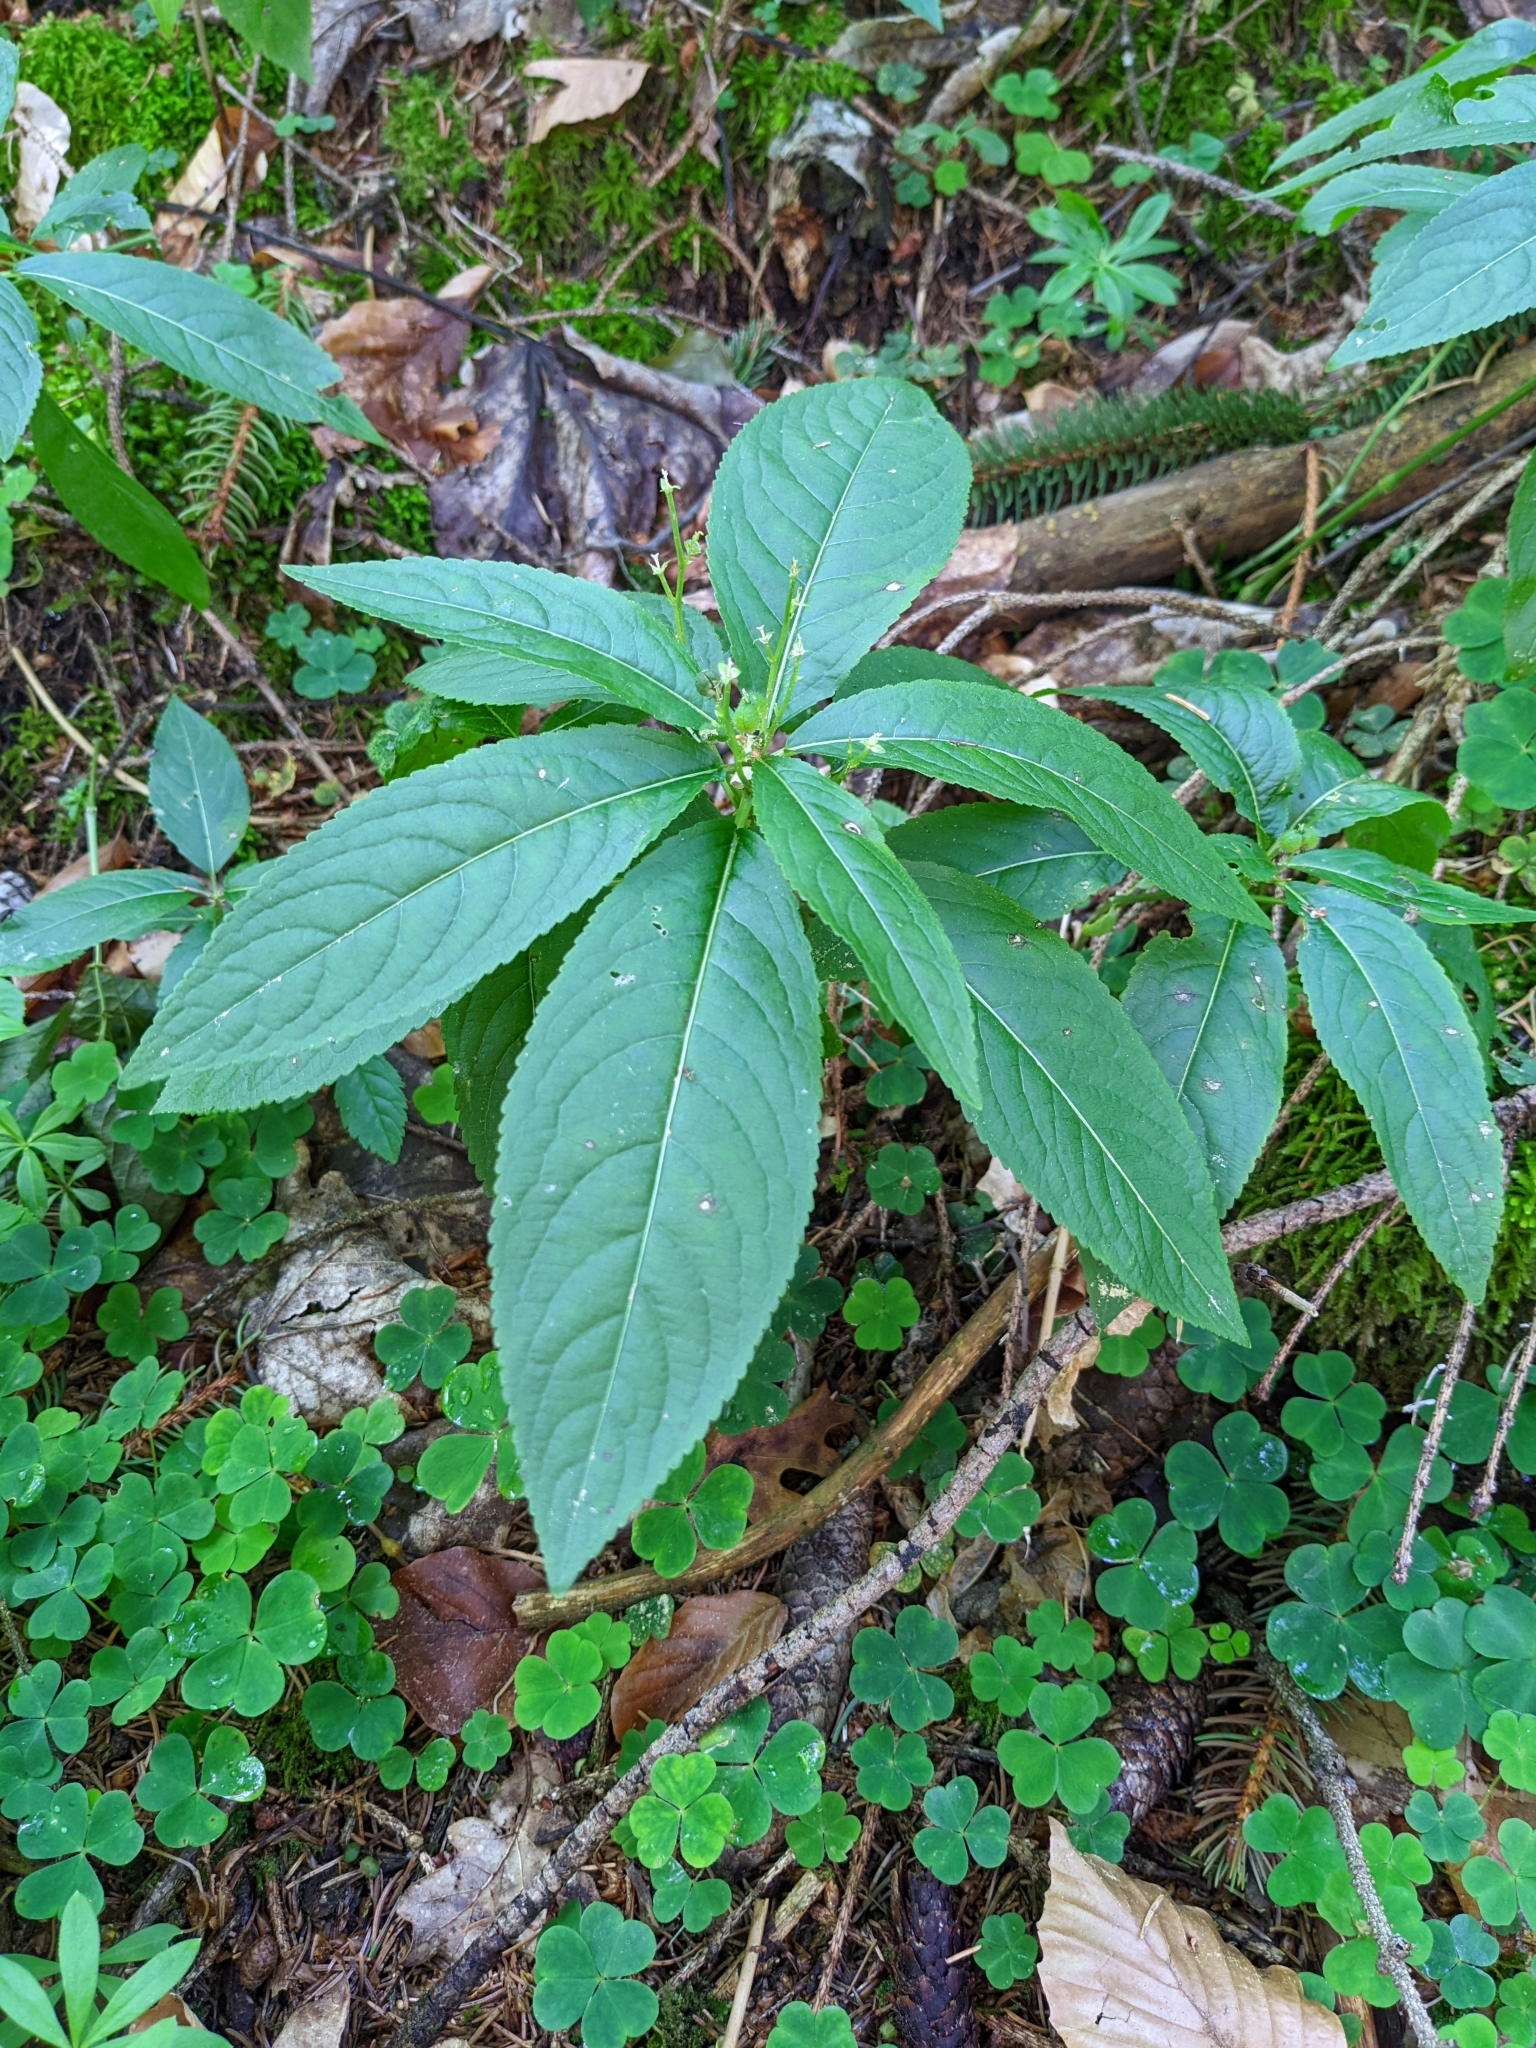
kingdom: Plantae
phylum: Tracheophyta
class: Magnoliopsida
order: Malpighiales
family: Euphorbiaceae
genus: Mercurialis
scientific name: Mercurialis perennis
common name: Dog mercury
